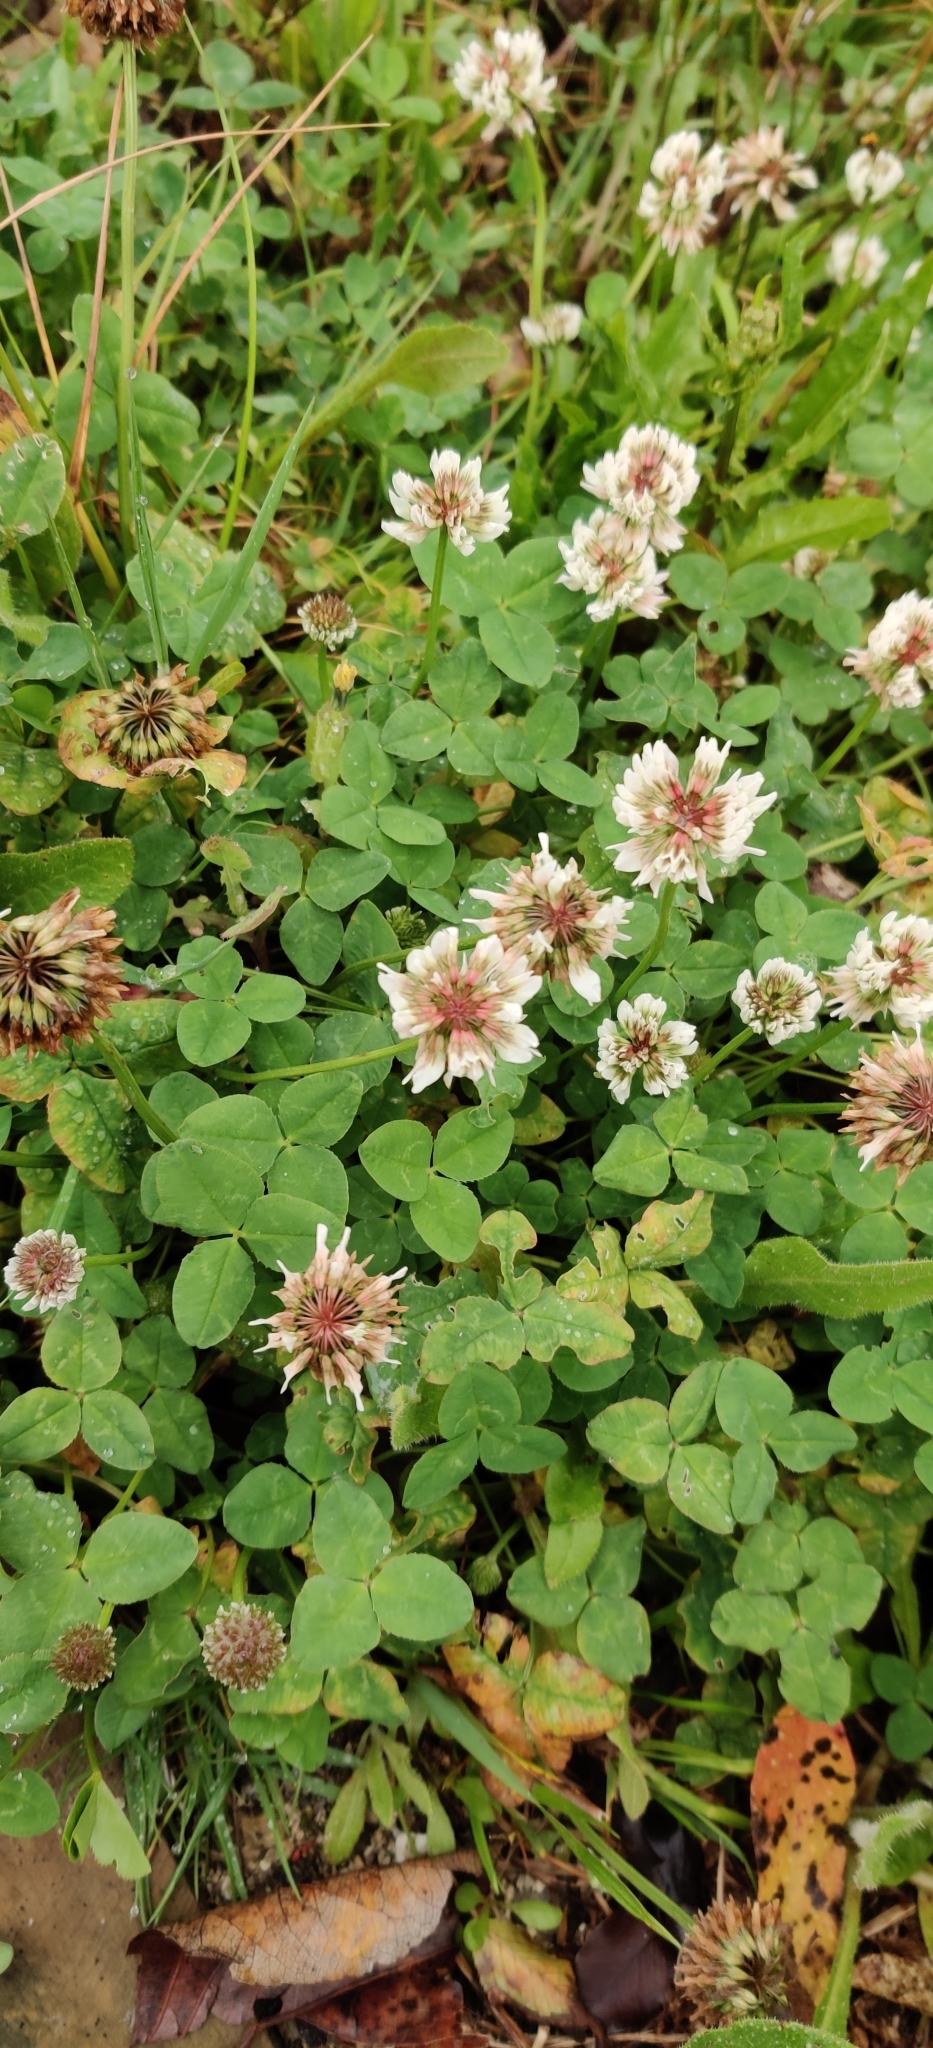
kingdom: Plantae
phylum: Tracheophyta
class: Magnoliopsida
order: Fabales
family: Fabaceae
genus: Trifolium
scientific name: Trifolium repens
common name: White clover
